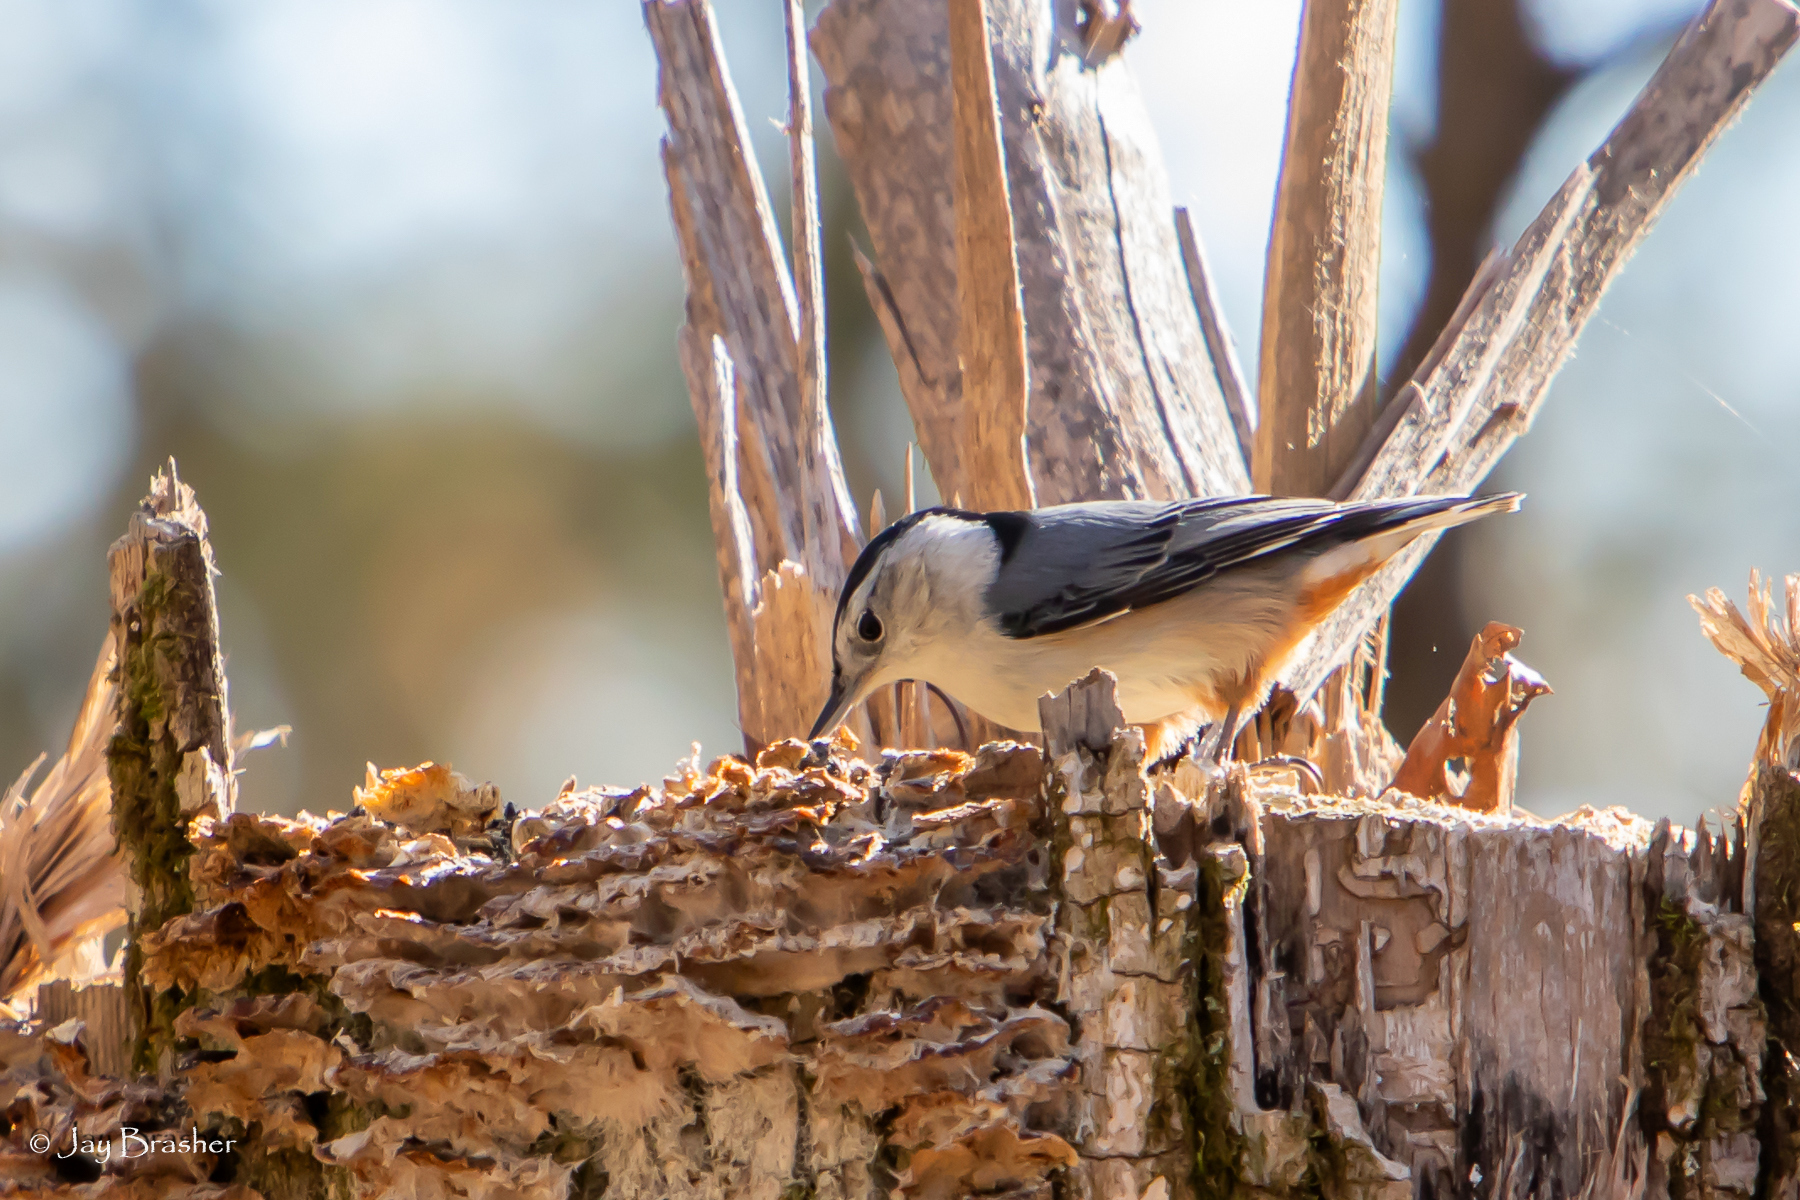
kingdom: Animalia
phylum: Chordata
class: Aves
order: Passeriformes
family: Sittidae
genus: Sitta
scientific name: Sitta carolinensis
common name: White-breasted nuthatch
